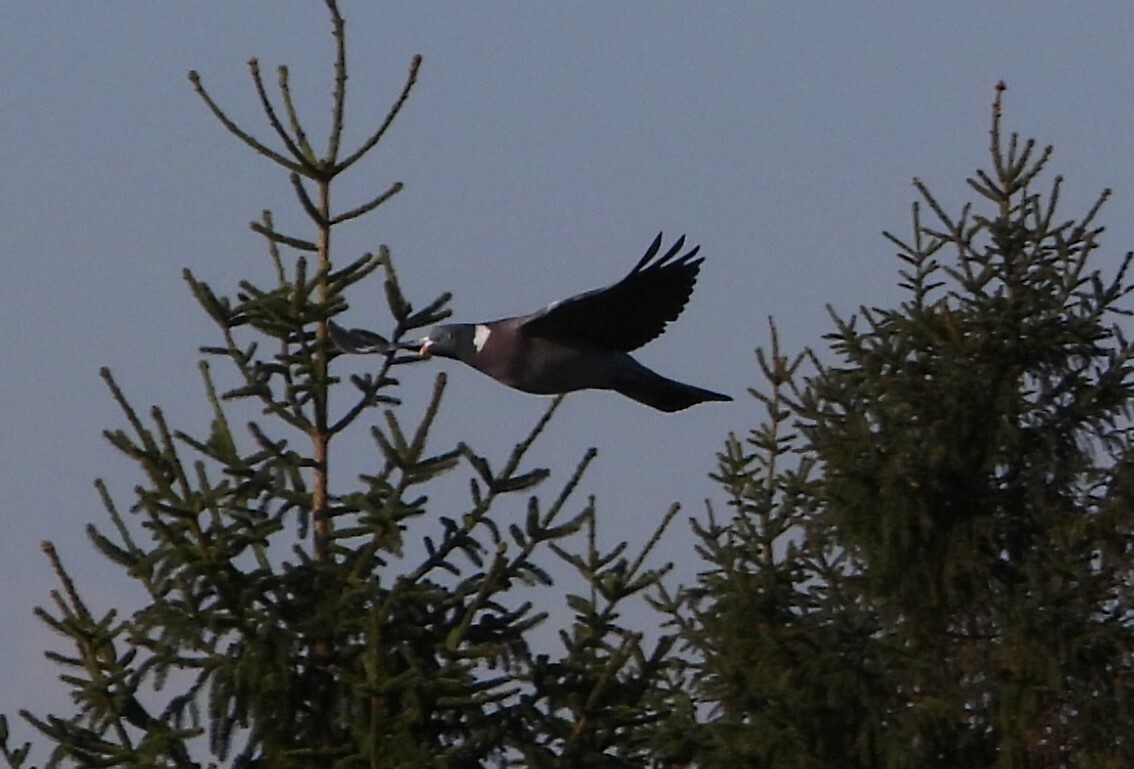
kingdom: Animalia
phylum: Chordata
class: Aves
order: Columbiformes
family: Columbidae
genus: Columba
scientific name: Columba palumbus
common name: Common wood pigeon
